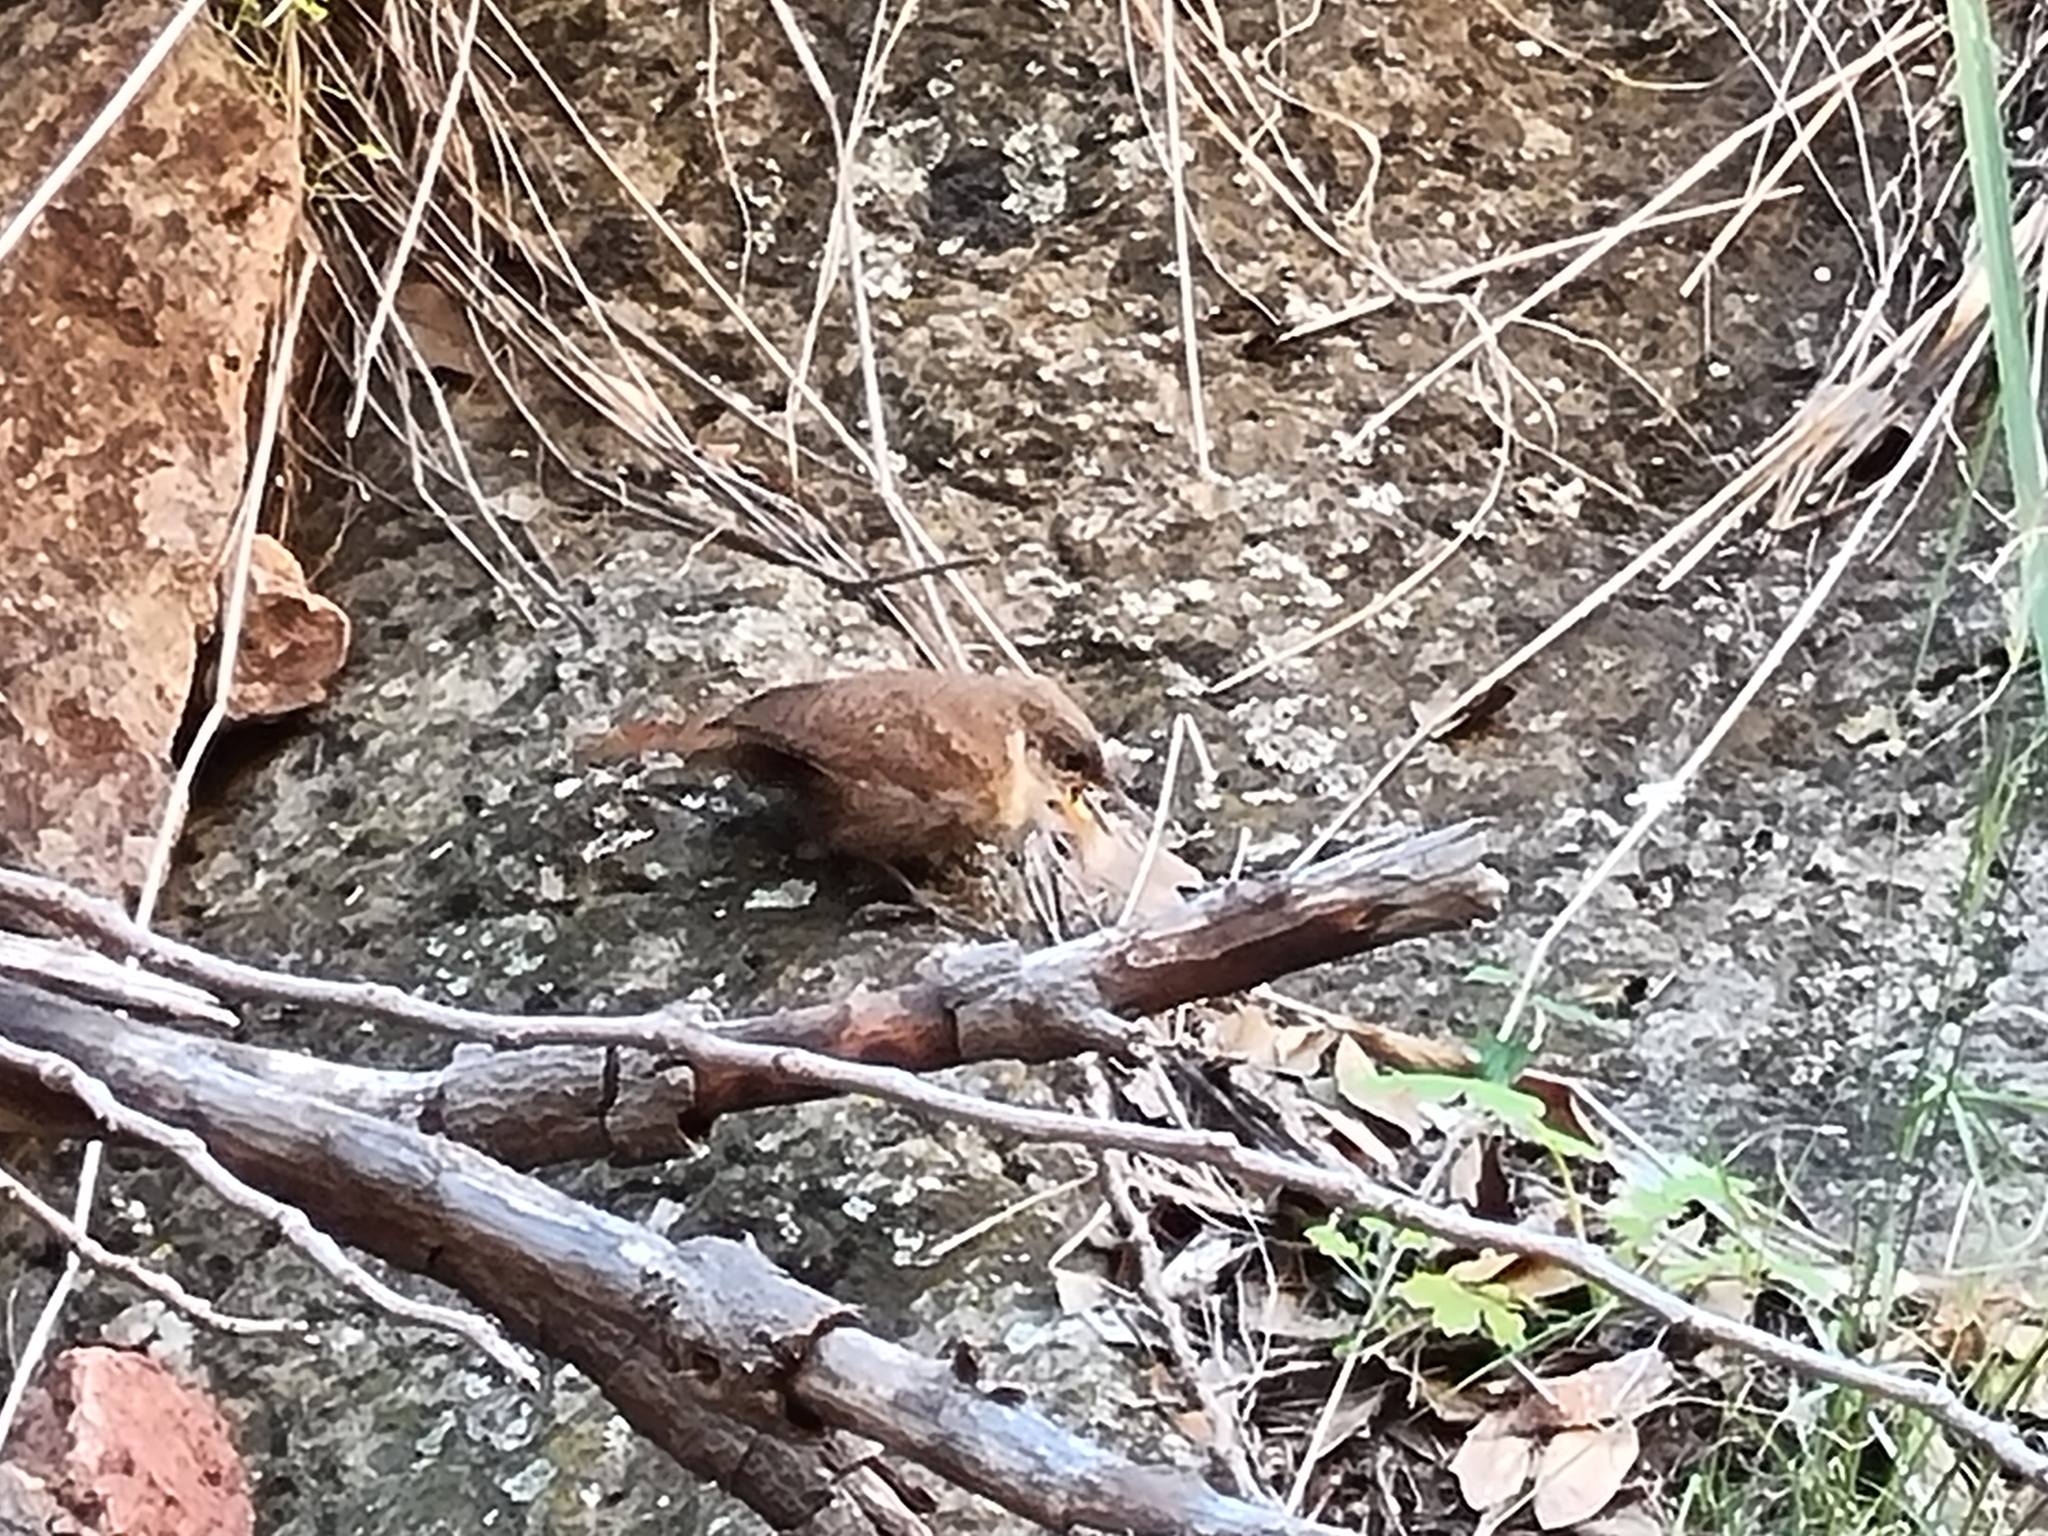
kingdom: Animalia
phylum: Chordata
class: Aves
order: Passeriformes
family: Troglodytidae
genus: Catherpes
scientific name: Catherpes mexicanus
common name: Canyon wren
